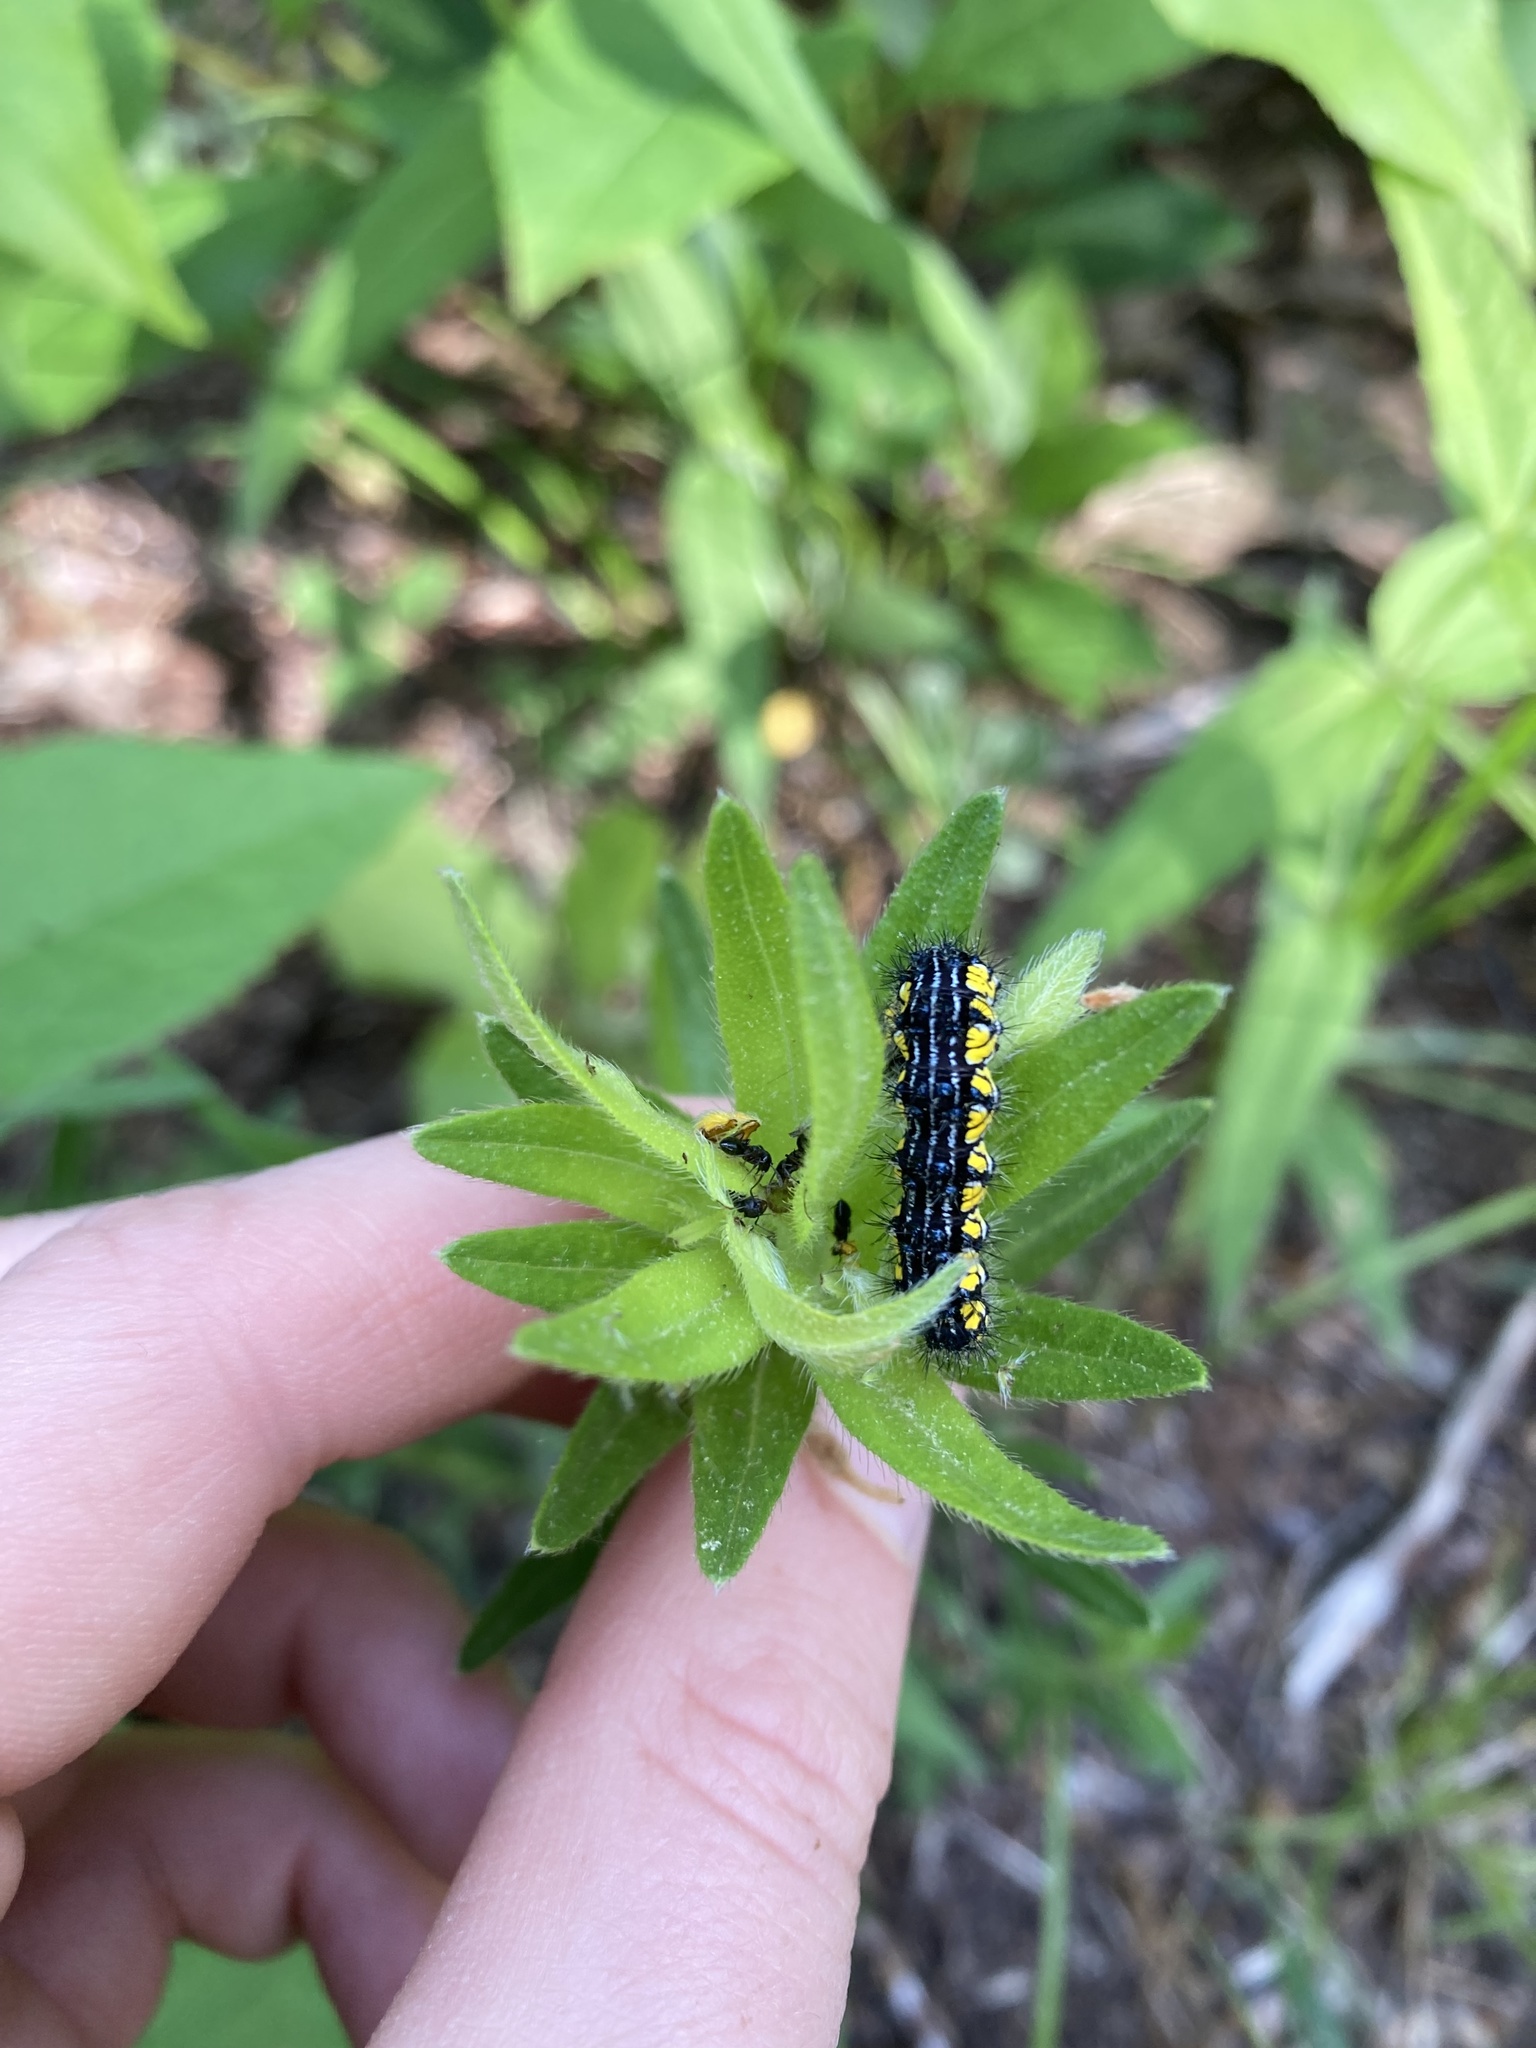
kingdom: Animalia
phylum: Arthropoda
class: Insecta
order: Lepidoptera
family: Erebidae
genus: Haploa
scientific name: Haploa contigua
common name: Neighbor moth
